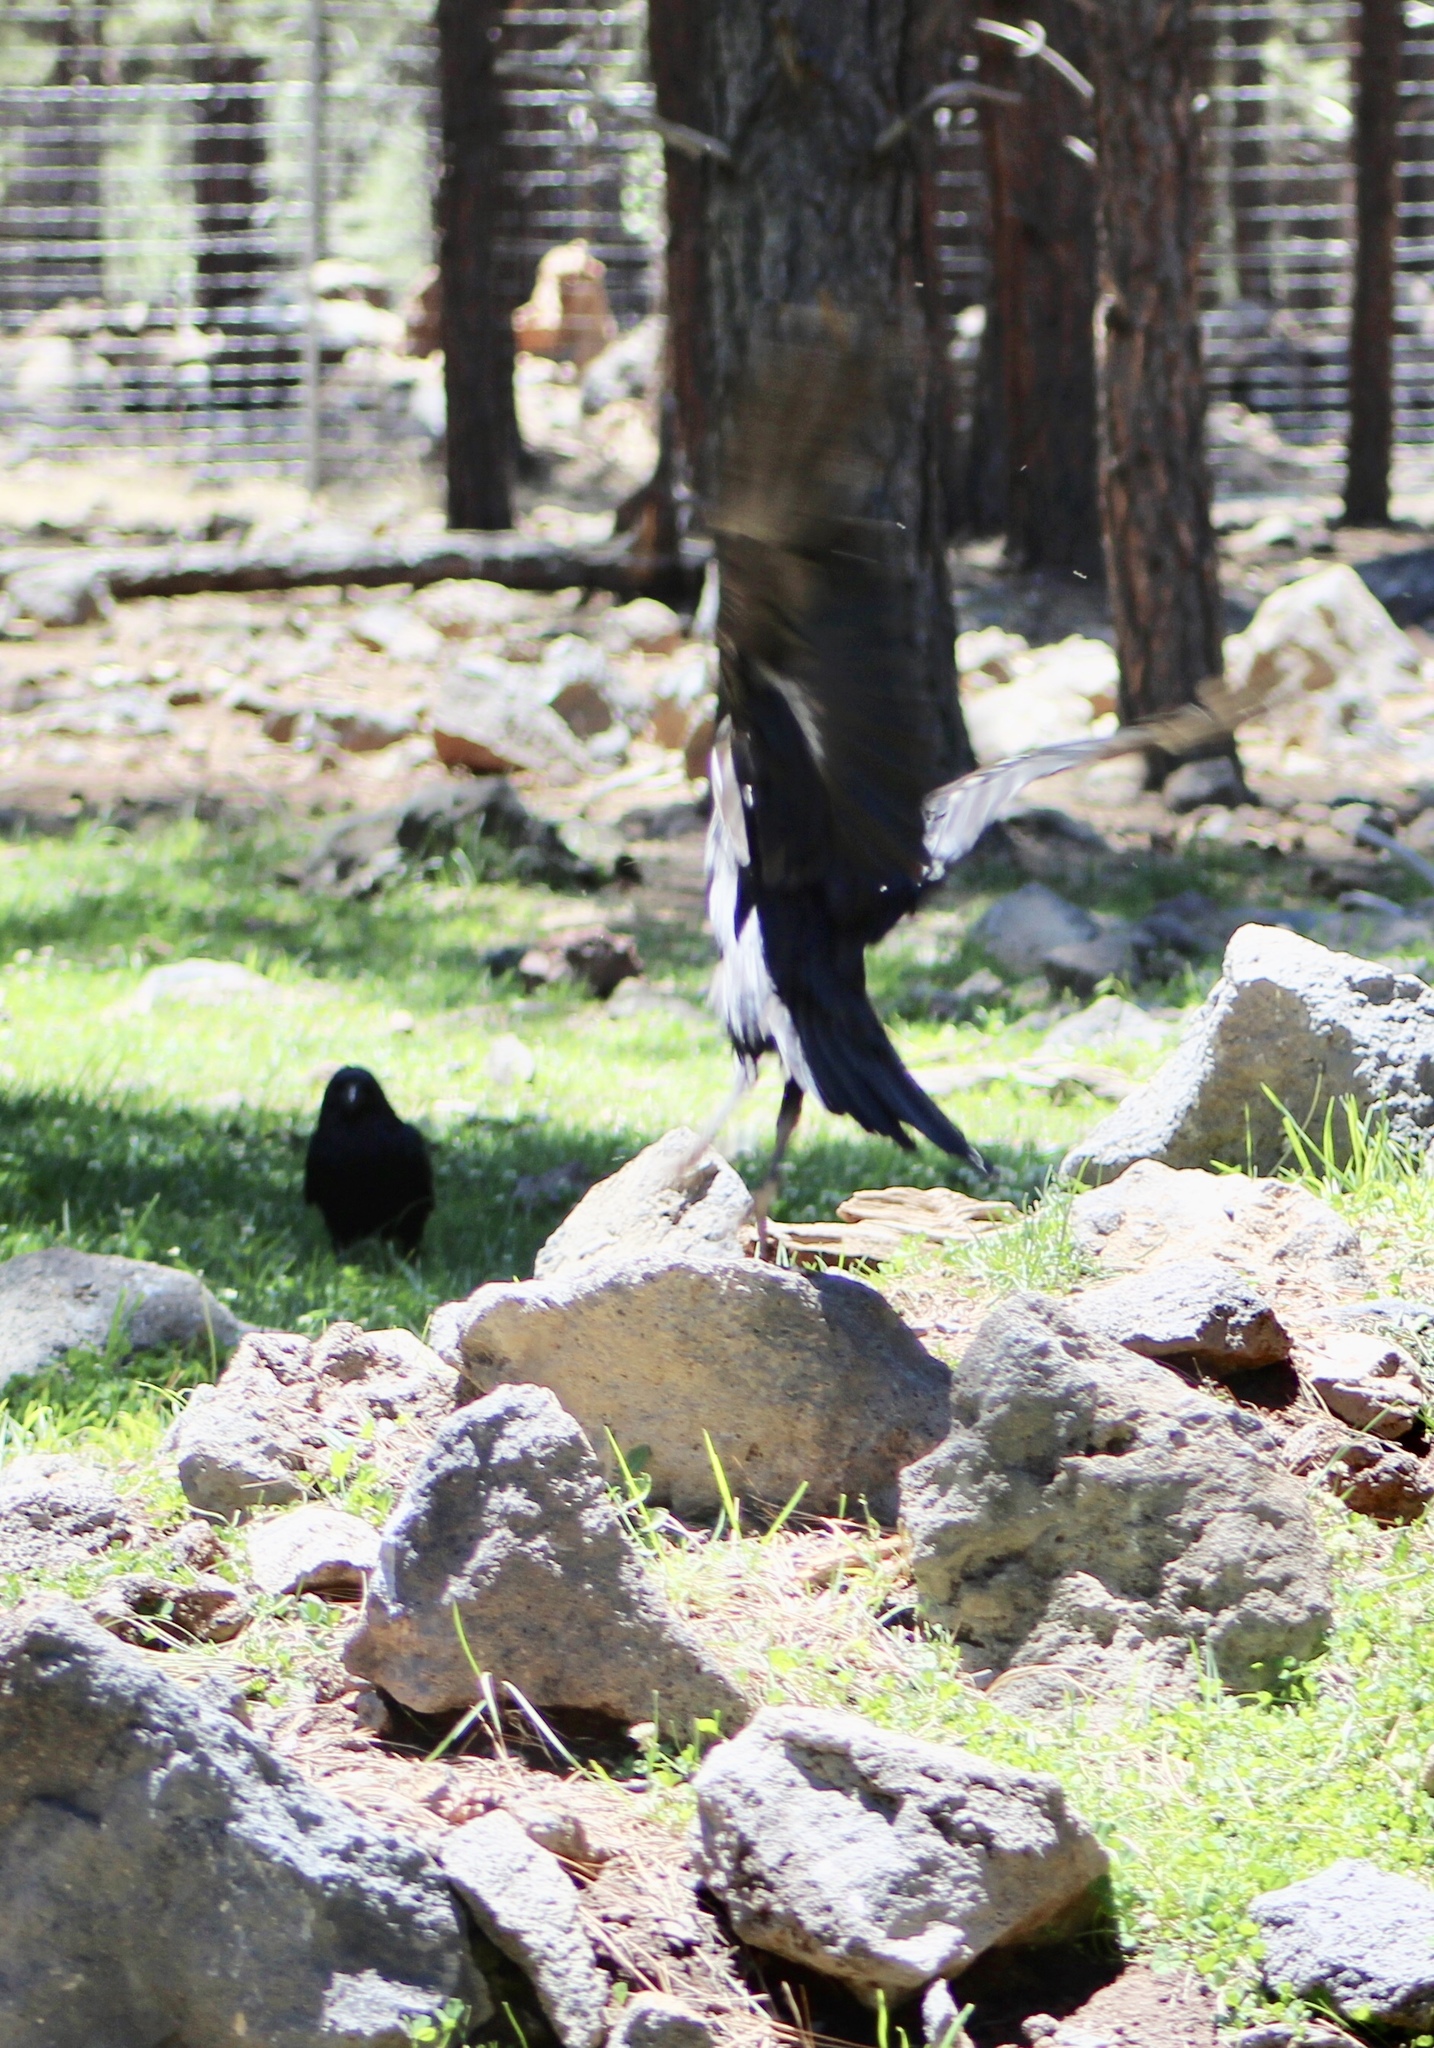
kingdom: Animalia
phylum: Chordata
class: Aves
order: Passeriformes
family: Corvidae
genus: Corvus
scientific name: Corvus corax
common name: Common raven
